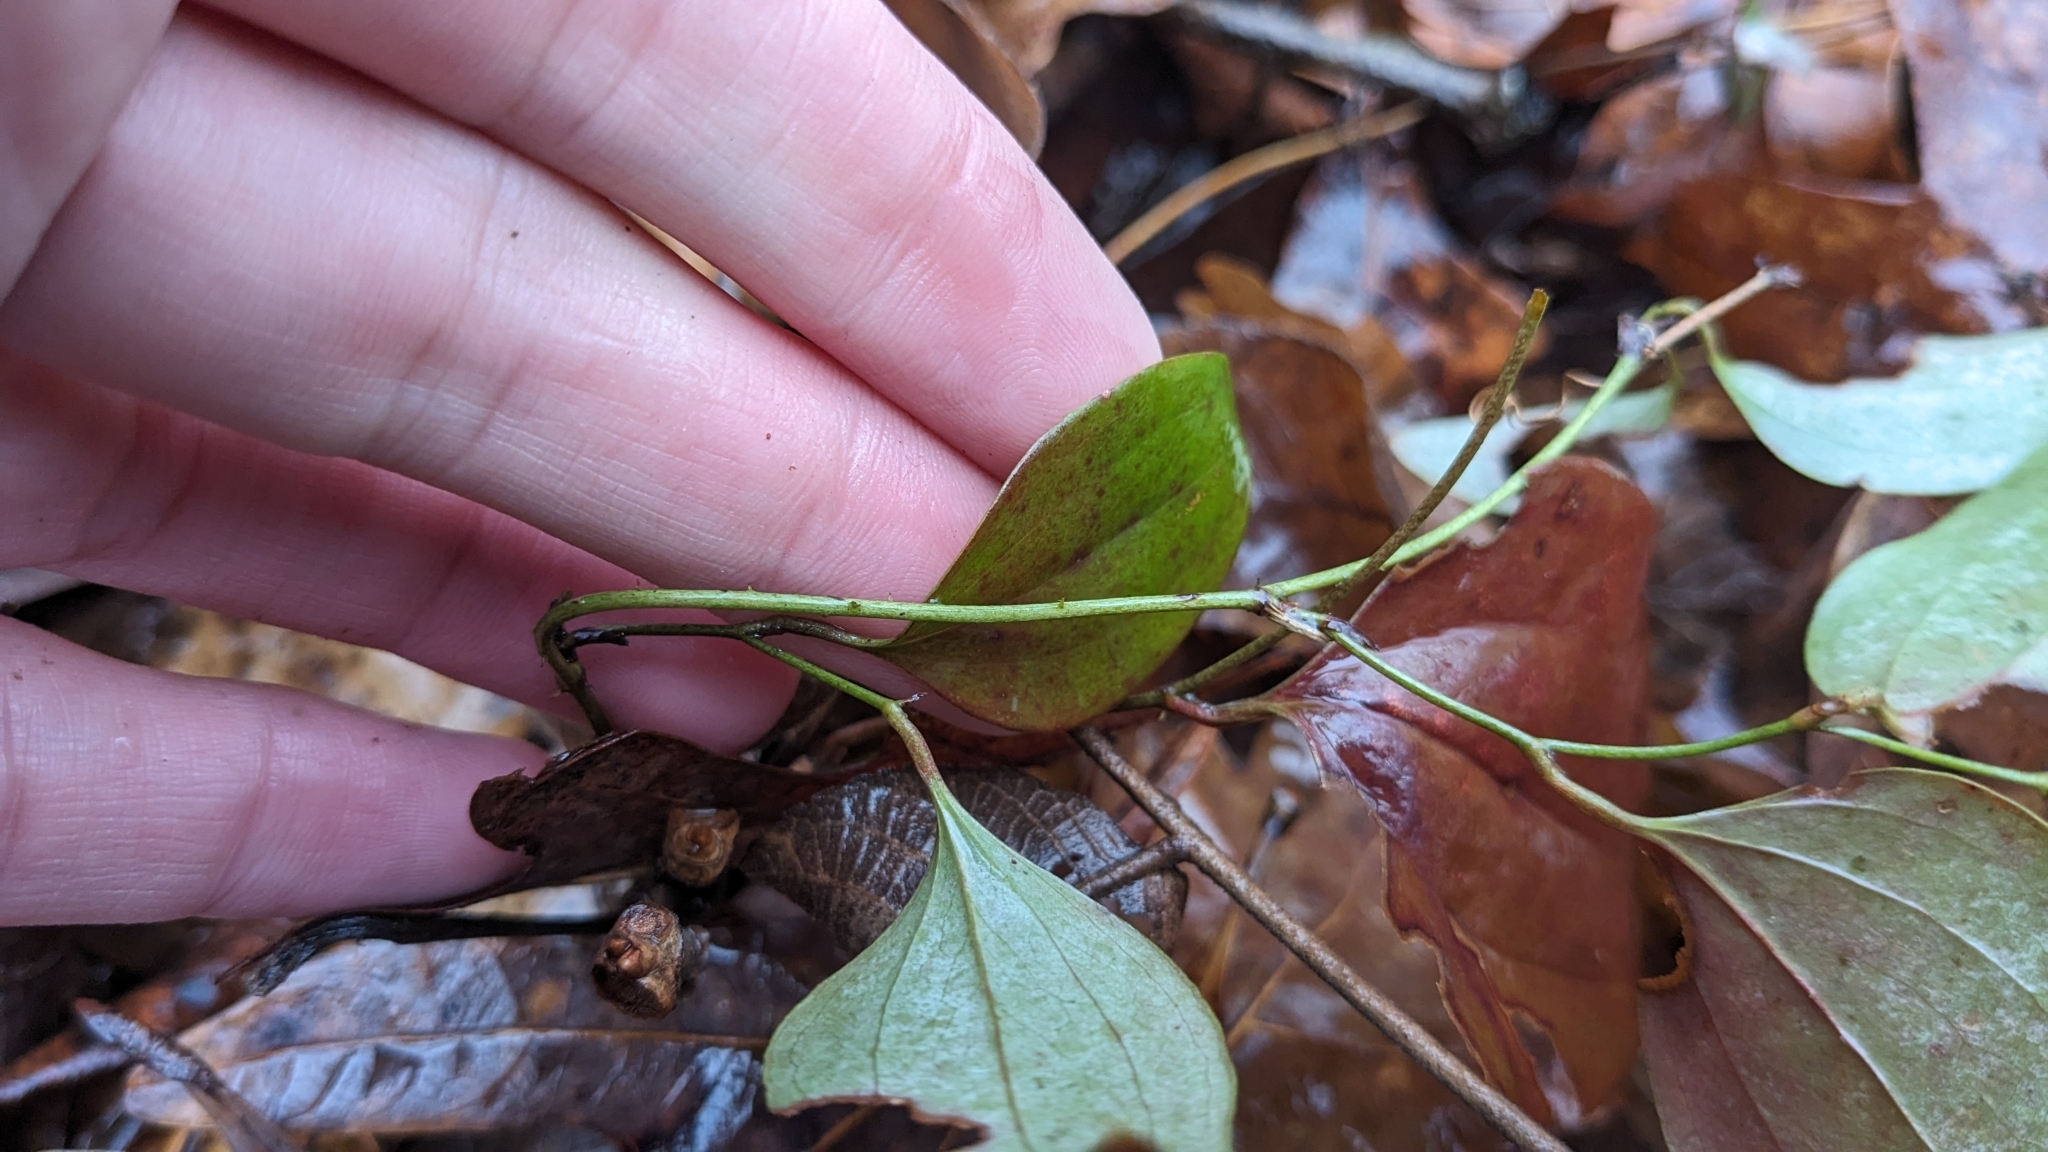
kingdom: Plantae
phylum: Tracheophyta
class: Liliopsida
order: Liliales
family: Smilacaceae
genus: Smilax
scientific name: Smilax glauca
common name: Cat greenbrier
